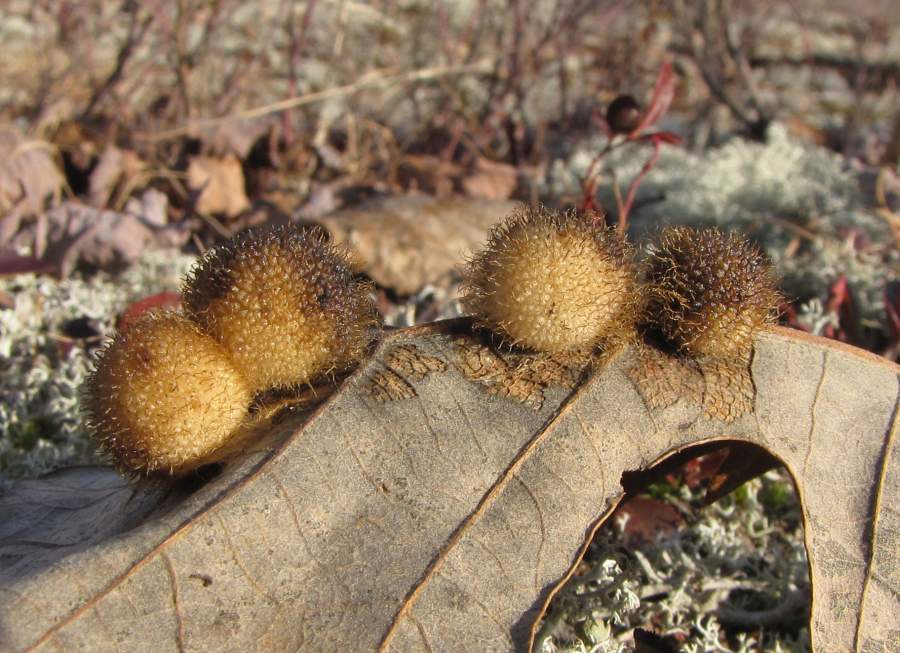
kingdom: Animalia
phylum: Arthropoda
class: Insecta
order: Hymenoptera
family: Cynipidae
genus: Acraspis
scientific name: Acraspis villosa
